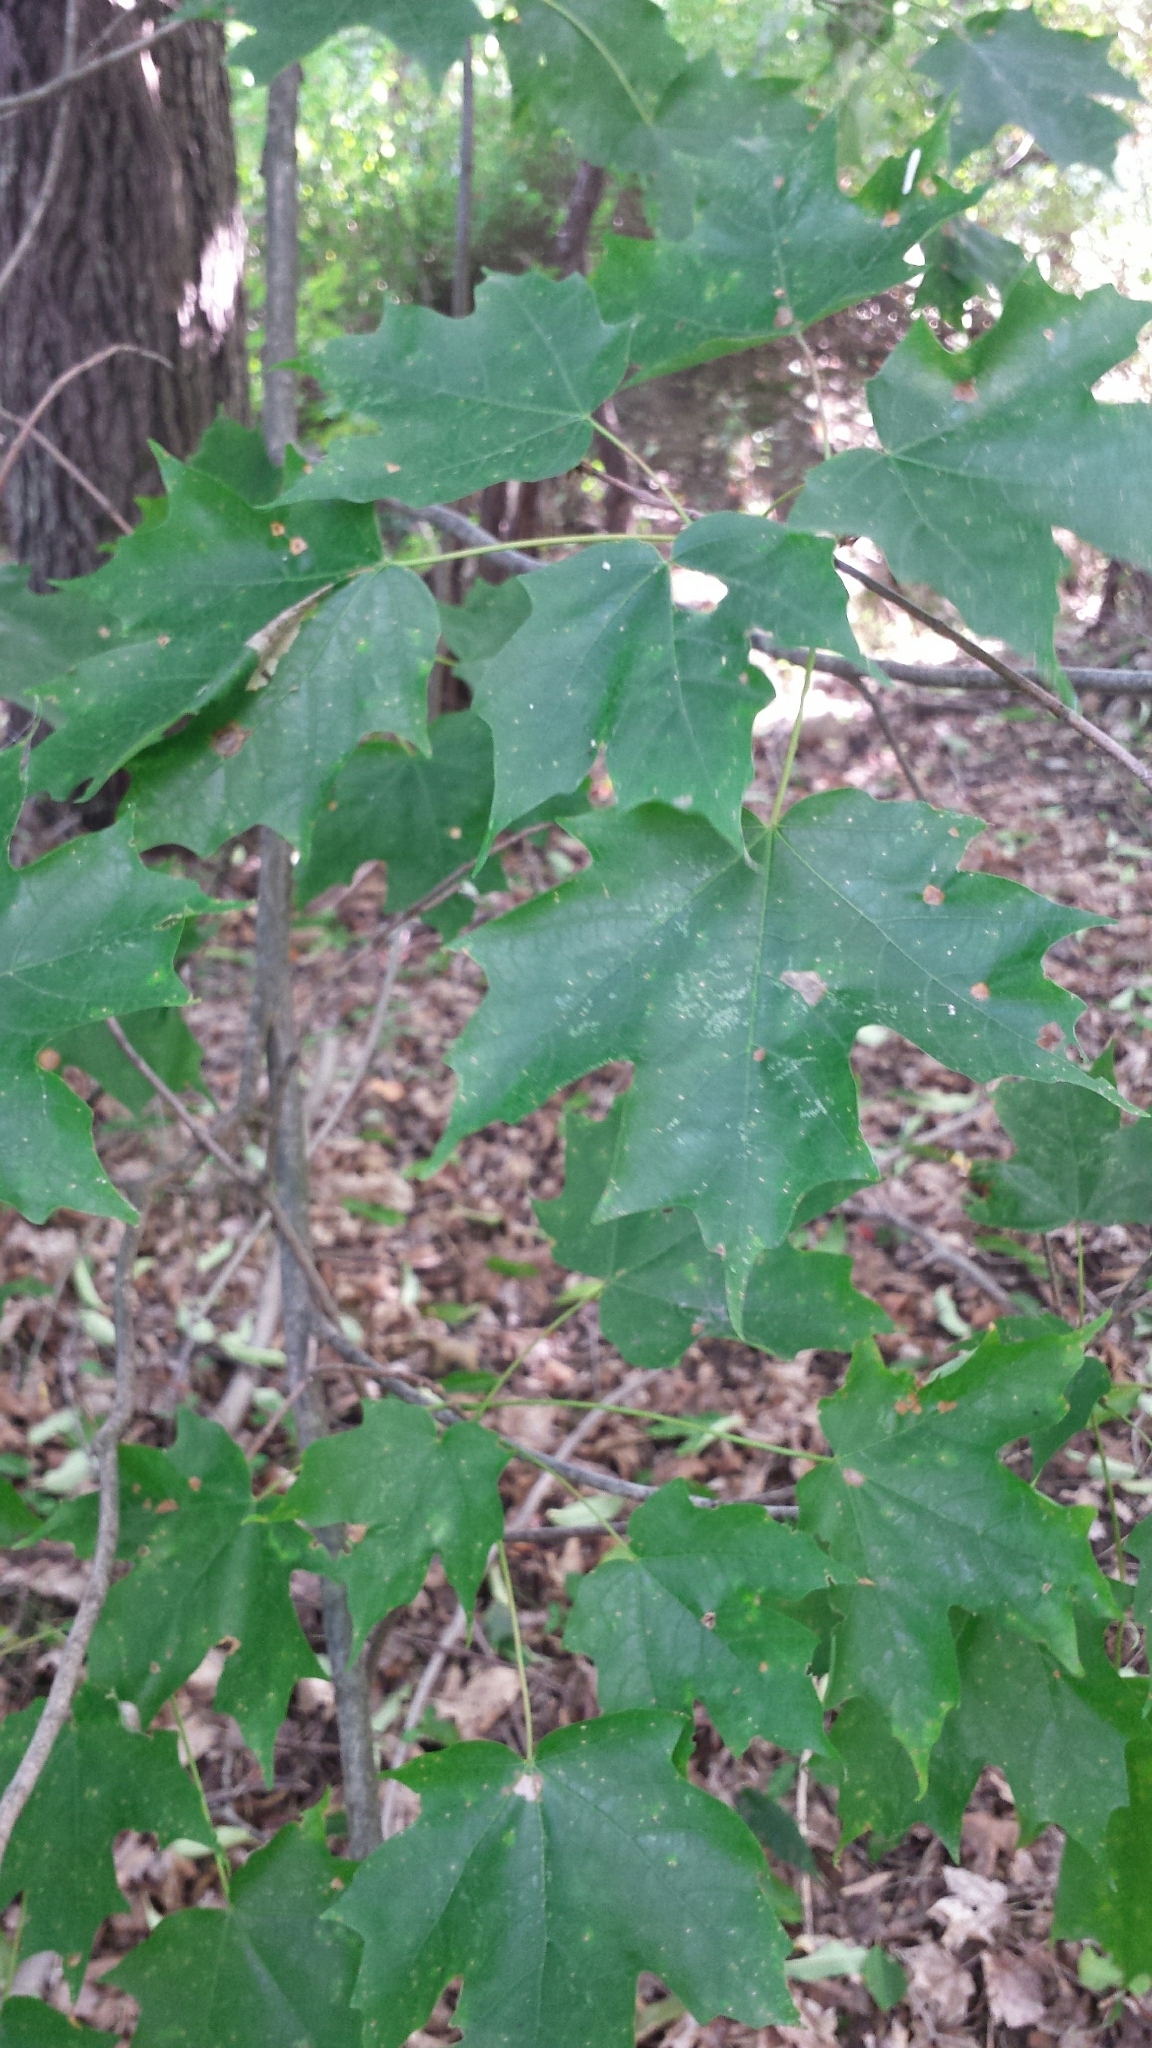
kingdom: Plantae
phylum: Tracheophyta
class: Magnoliopsida
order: Sapindales
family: Sapindaceae
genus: Acer
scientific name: Acer saccharum
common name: Sugar maple
